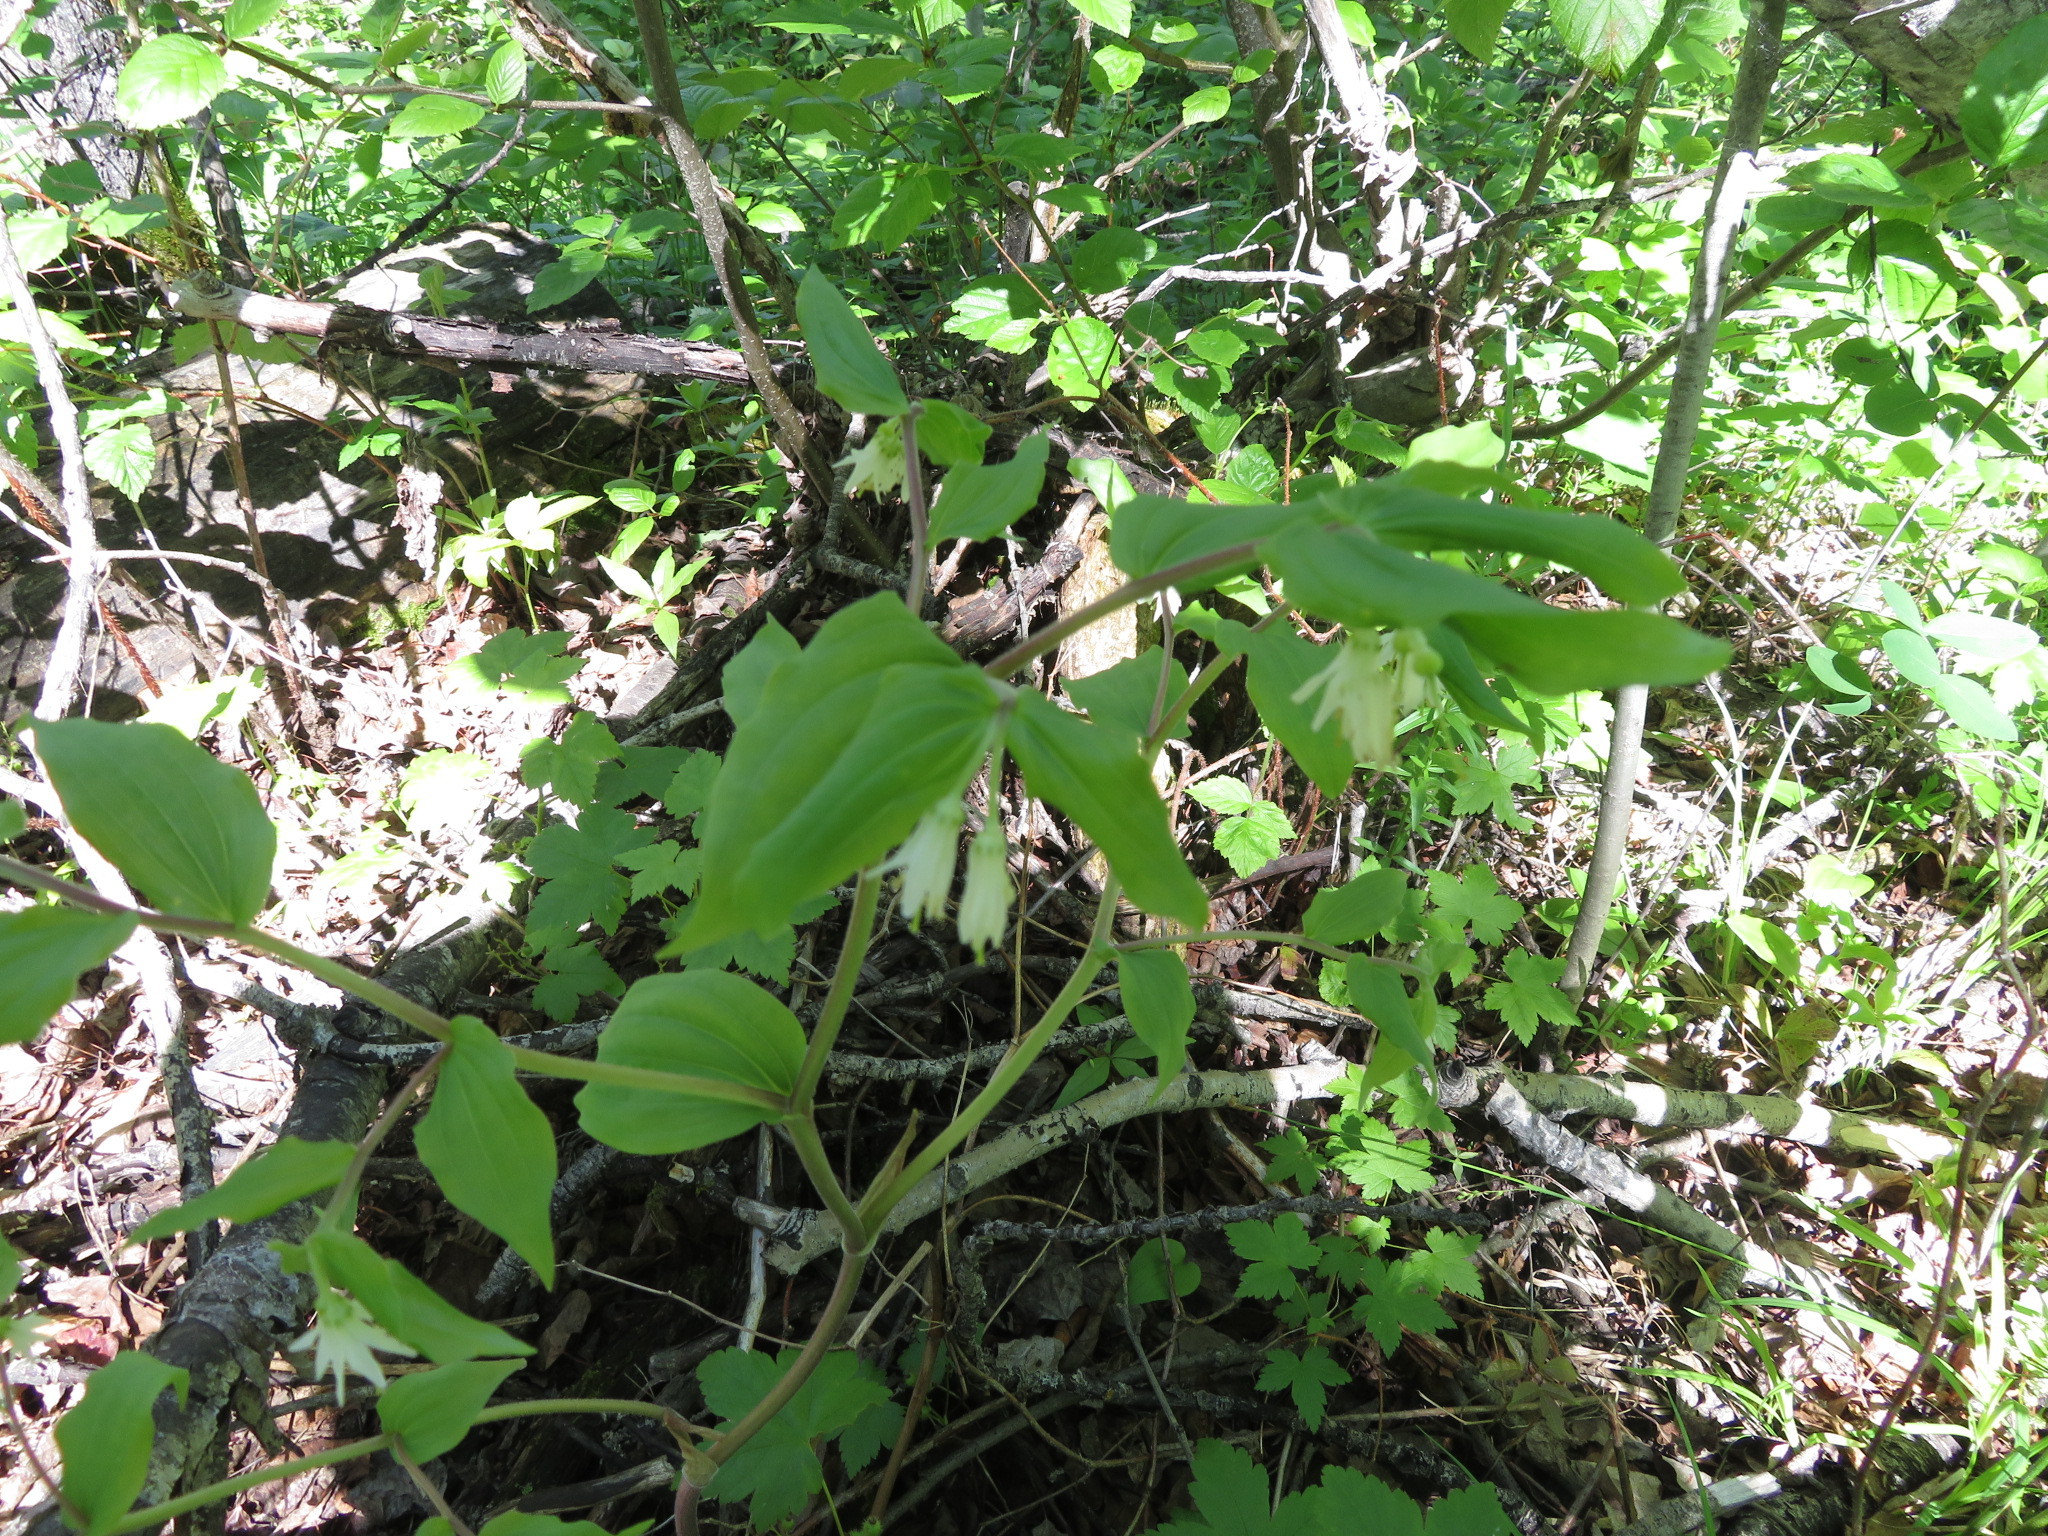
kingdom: Plantae
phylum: Tracheophyta
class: Liliopsida
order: Liliales
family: Liliaceae
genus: Prosartes
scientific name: Prosartes trachycarpa
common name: Rough-fruit fairy-bells
